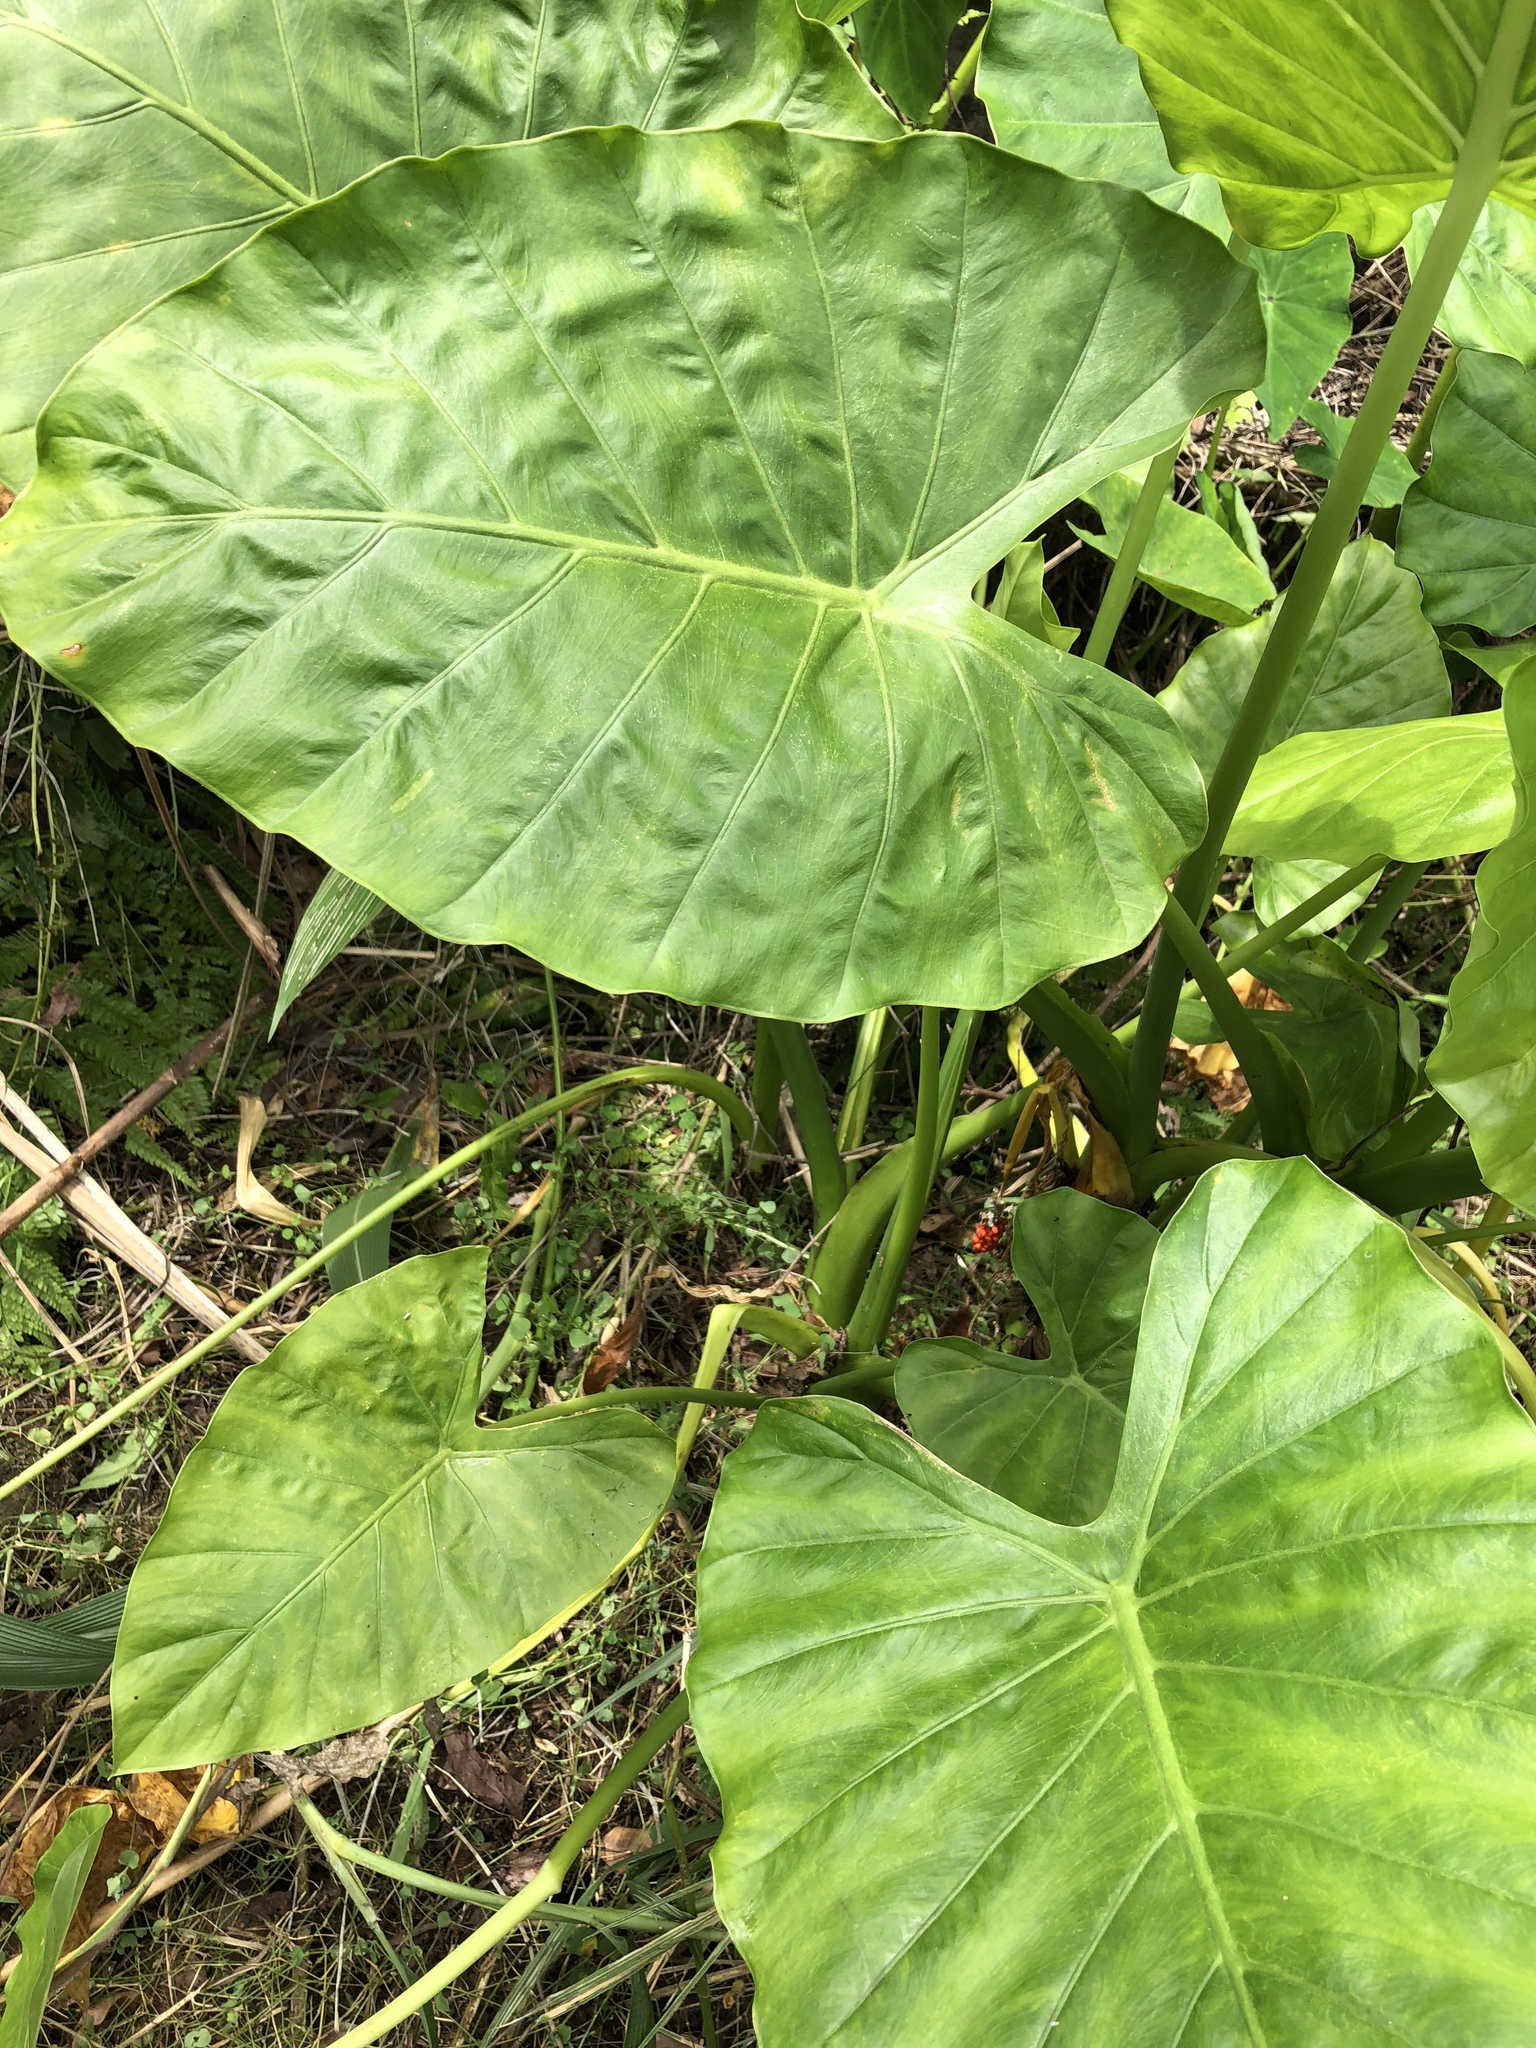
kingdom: Plantae
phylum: Tracheophyta
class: Liliopsida
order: Alismatales
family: Araceae
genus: Alocasia
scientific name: Alocasia odora
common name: Asian taro
